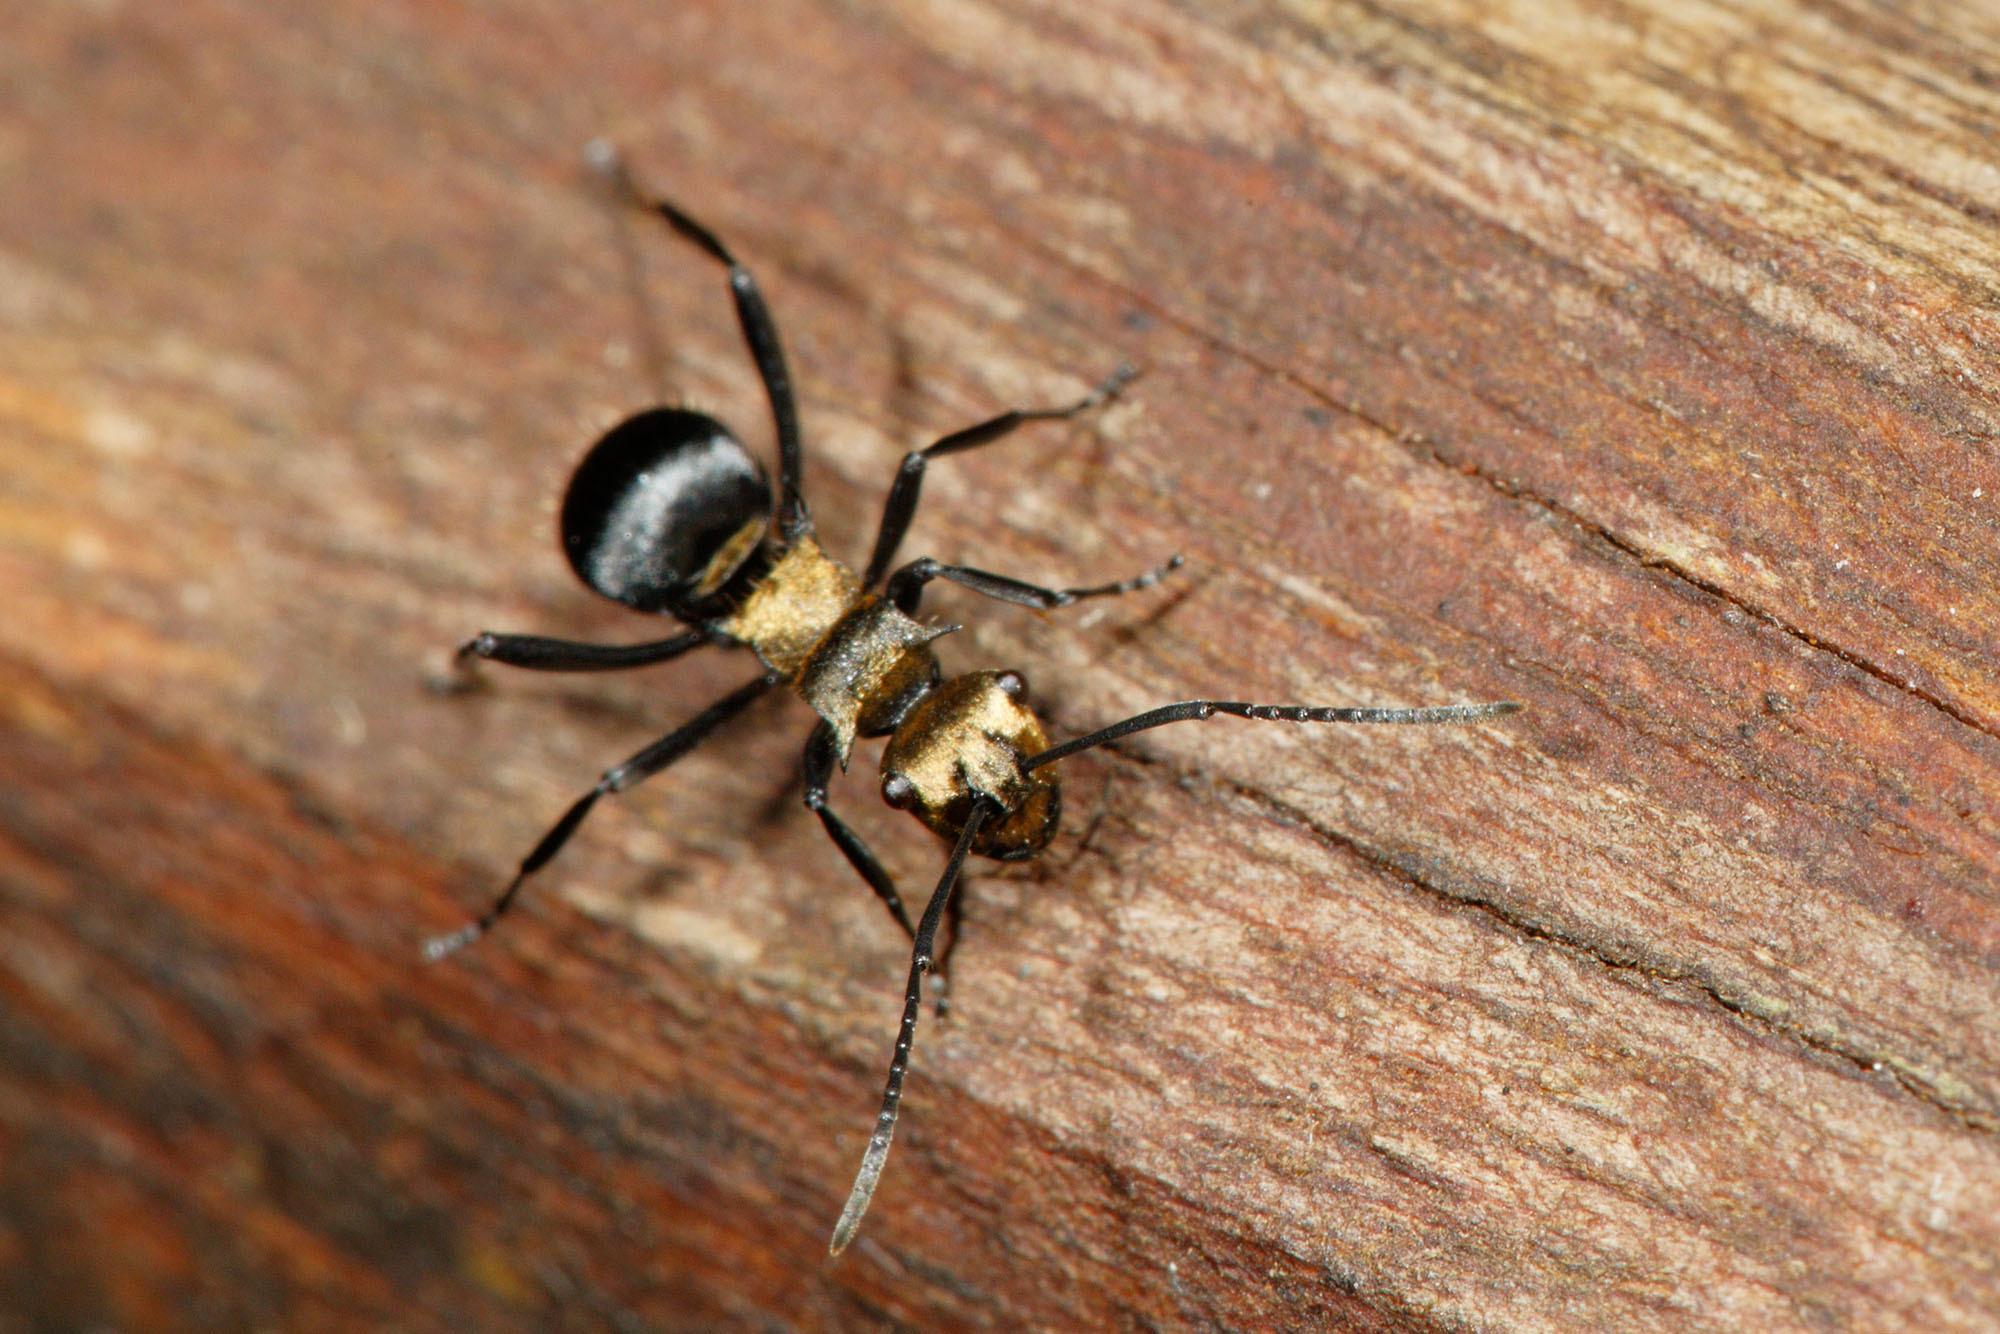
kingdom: Animalia
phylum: Arthropoda
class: Insecta
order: Hymenoptera
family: Formicidae
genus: Polyrhachis
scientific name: Polyrhachis hermione
